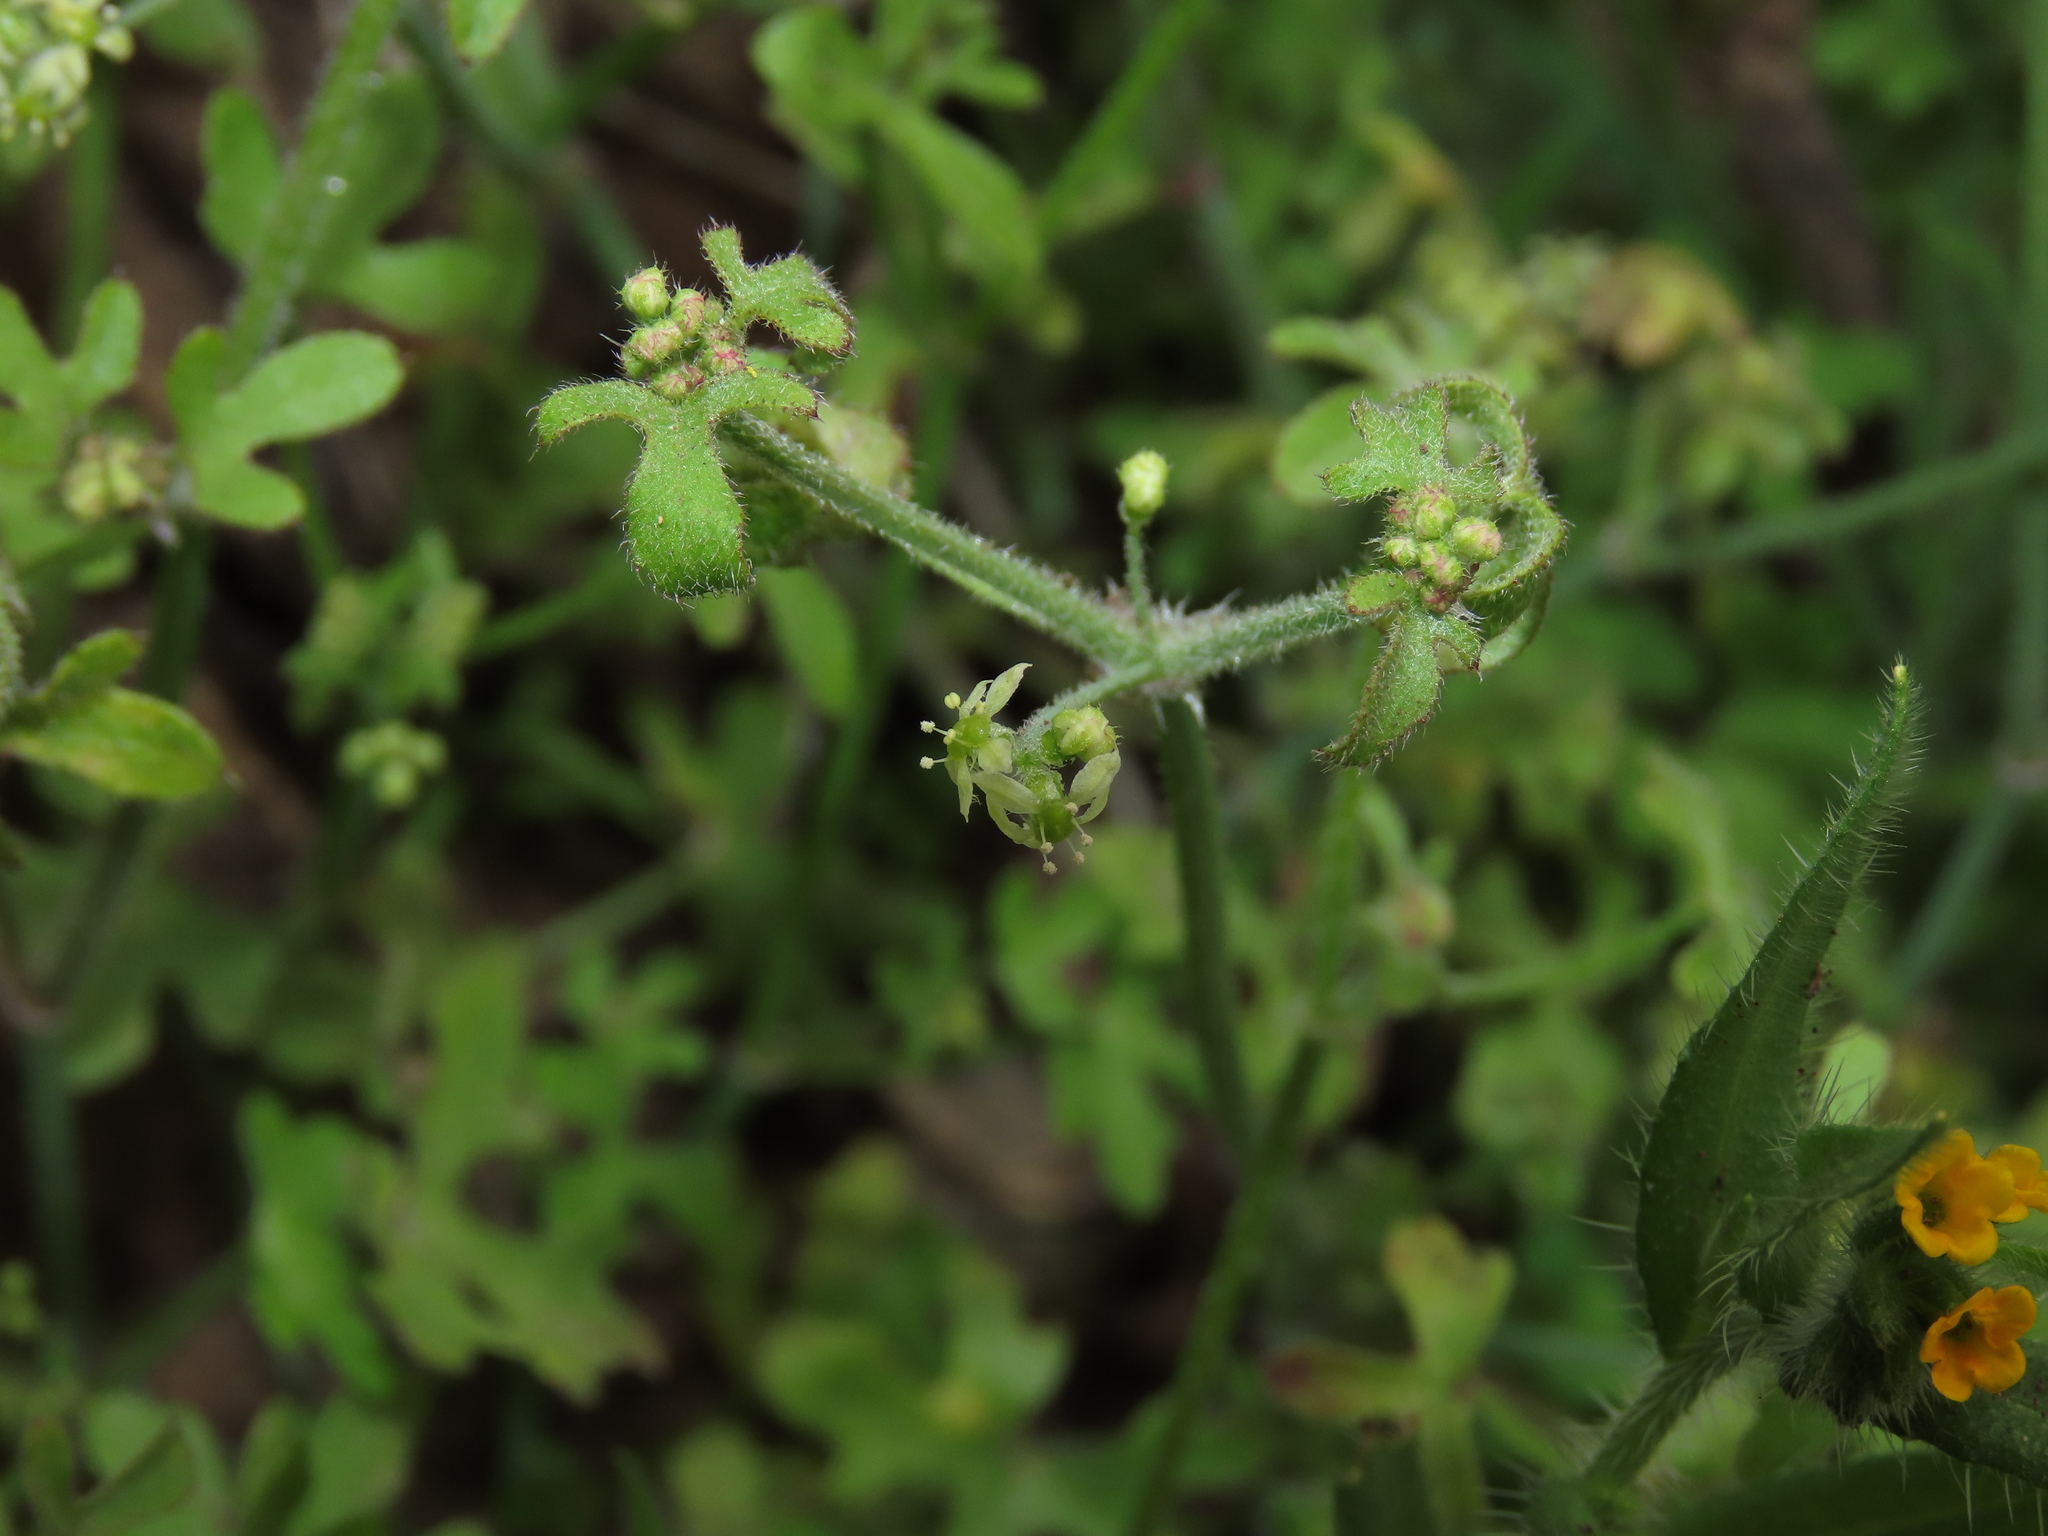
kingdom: Plantae
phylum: Tracheophyta
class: Magnoliopsida
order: Apiales
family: Apiaceae
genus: Bowlesia
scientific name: Bowlesia uncinata
